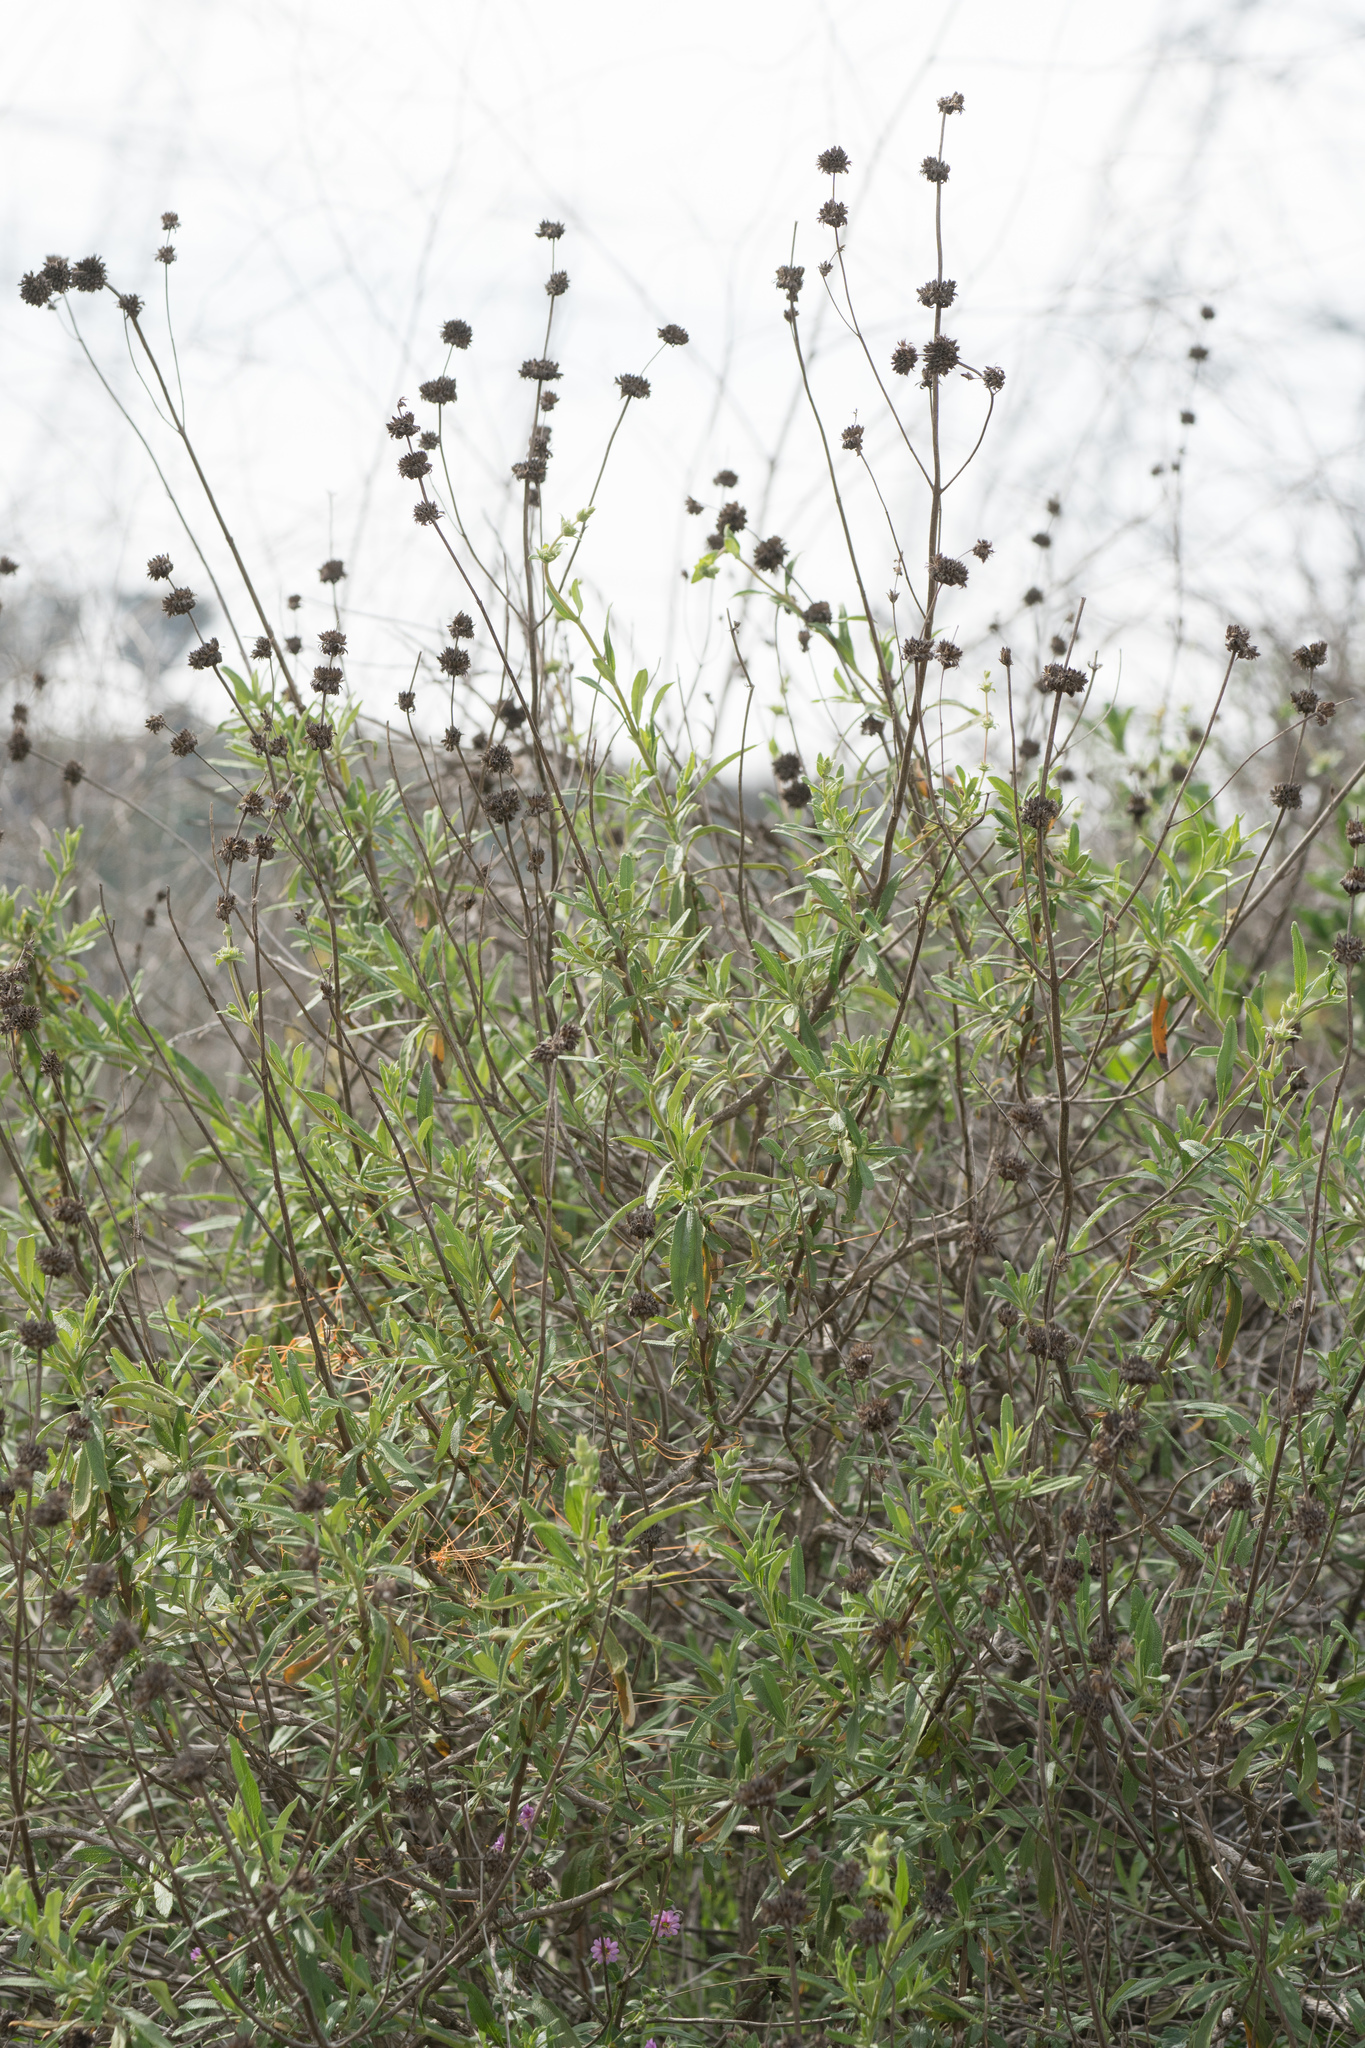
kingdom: Plantae
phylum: Tracheophyta
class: Magnoliopsida
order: Lamiales
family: Lamiaceae
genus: Salvia
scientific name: Salvia mellifera
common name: Black sage
